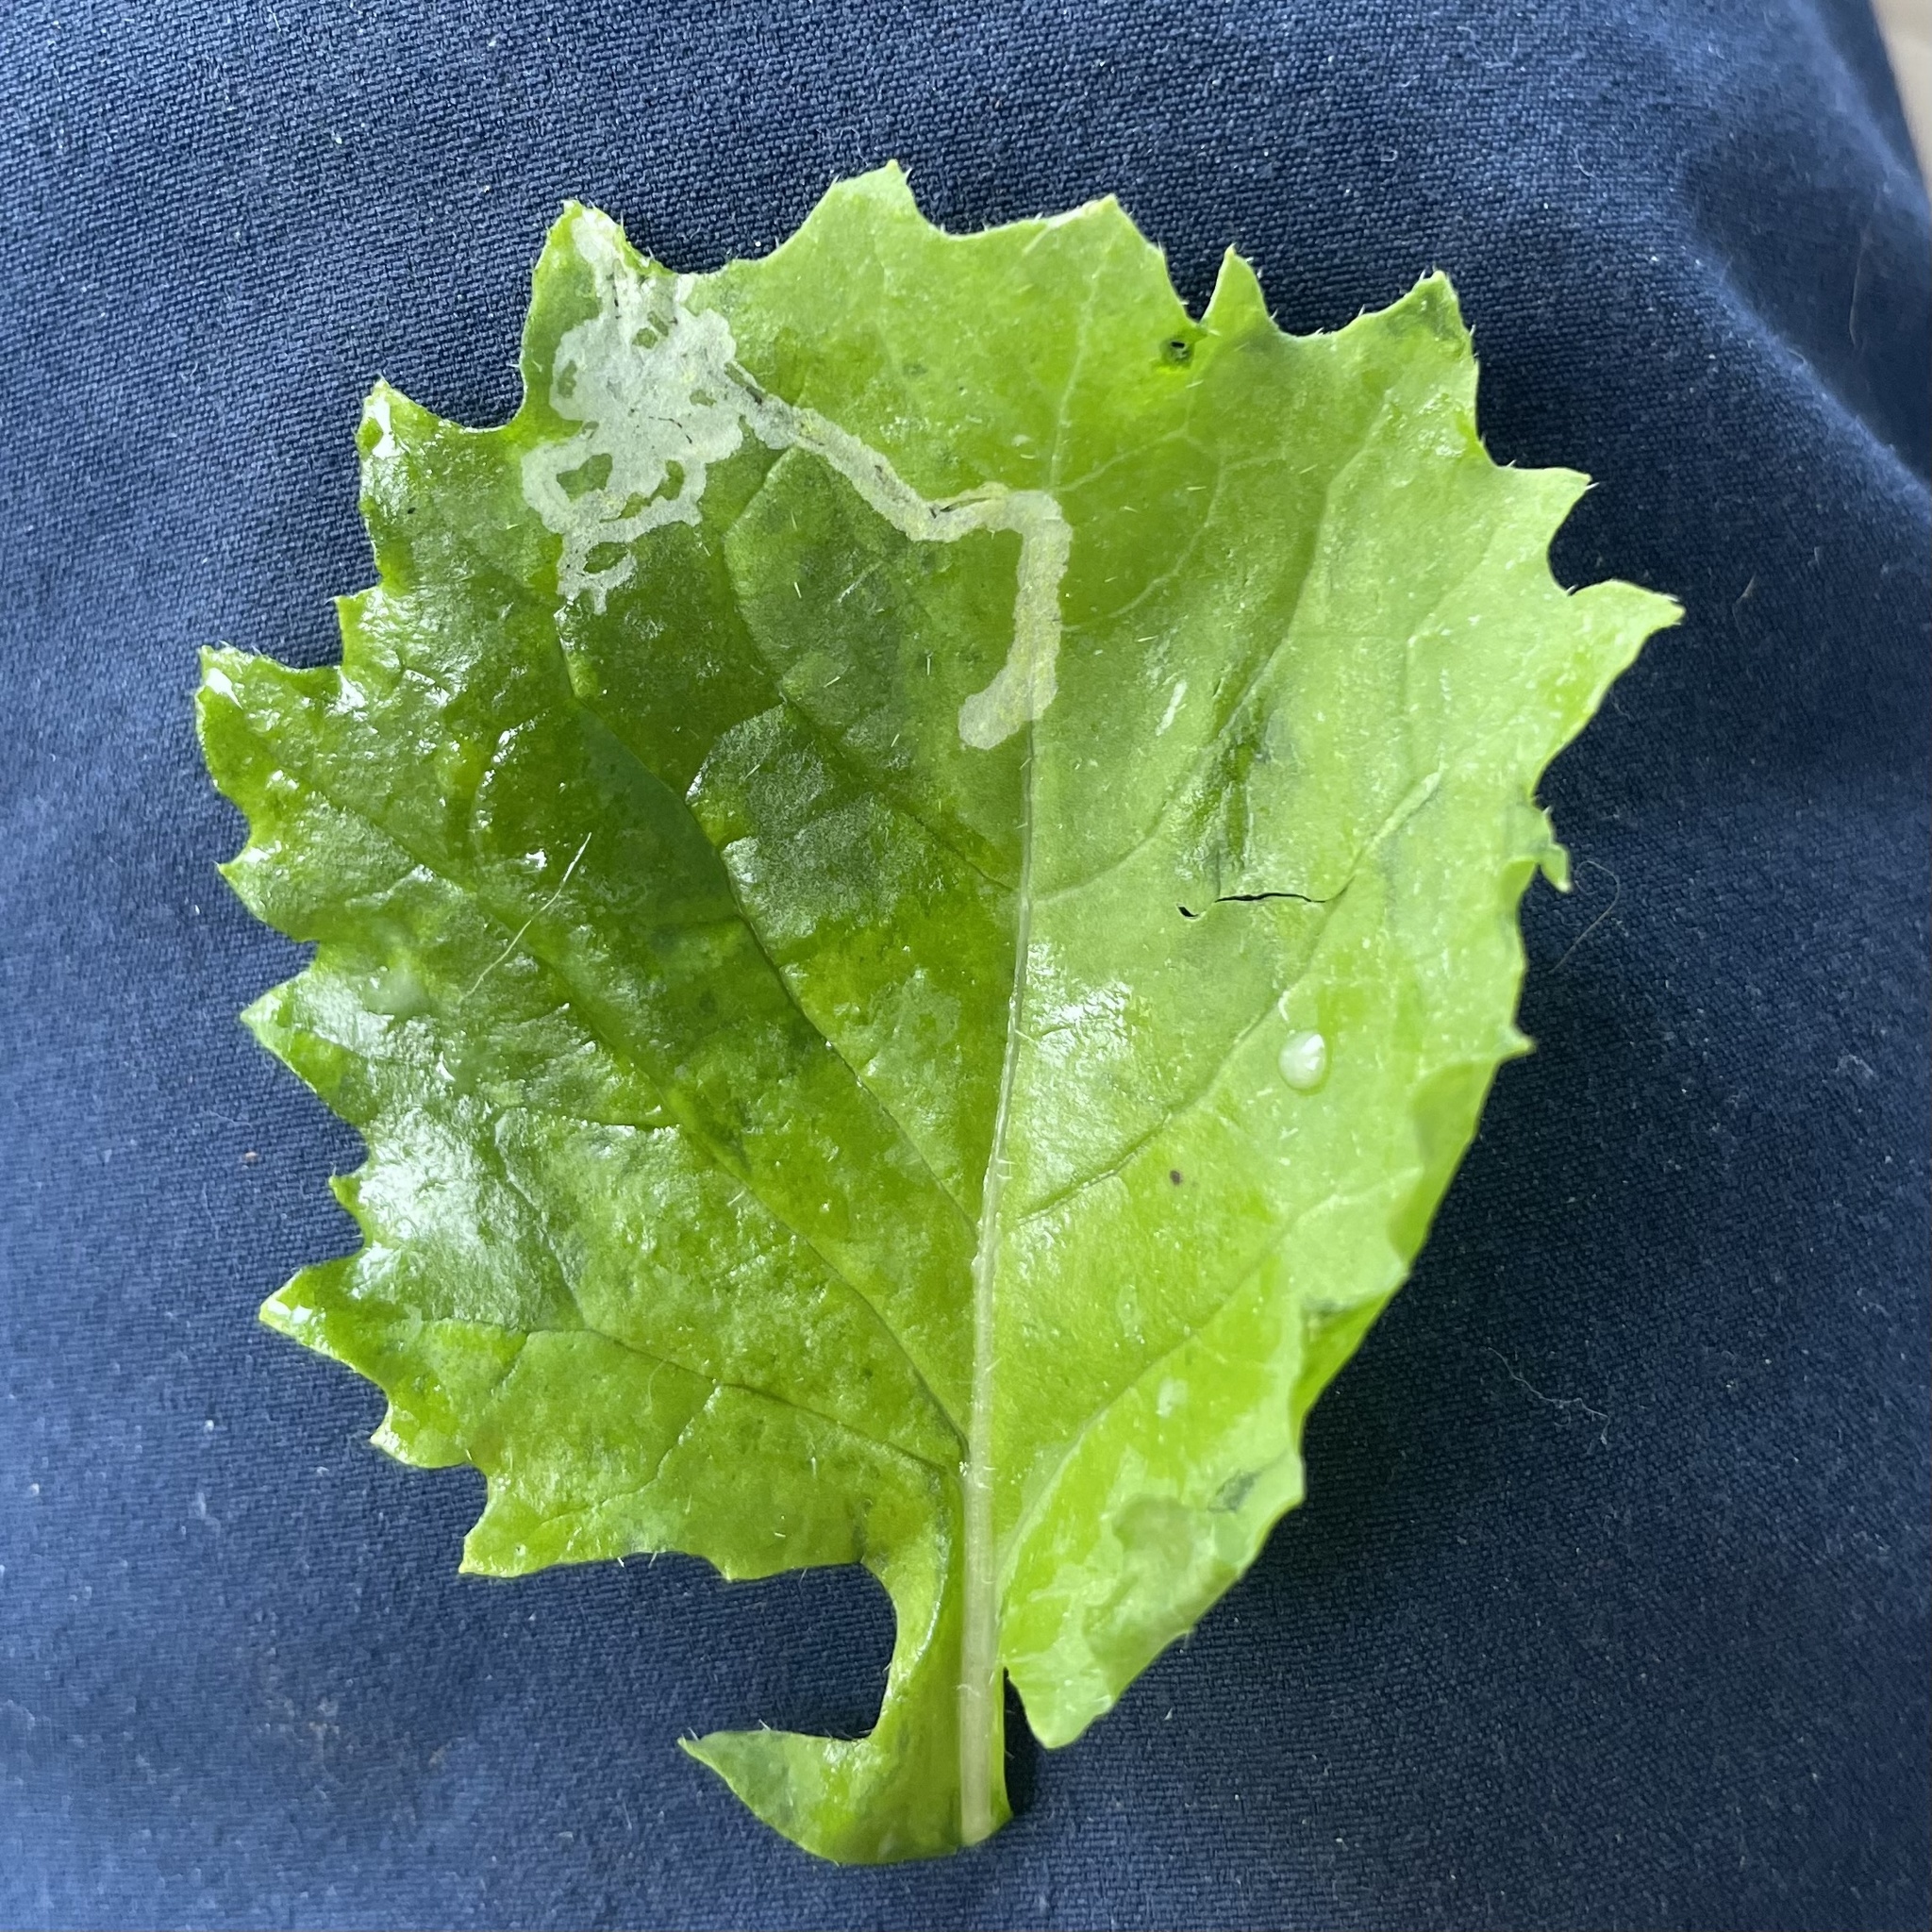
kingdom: Animalia
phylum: Arthropoda
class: Insecta
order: Diptera
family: Agromyzidae
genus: Liriomyza
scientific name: Liriomyza brassicae
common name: Serpentine leaf miner
